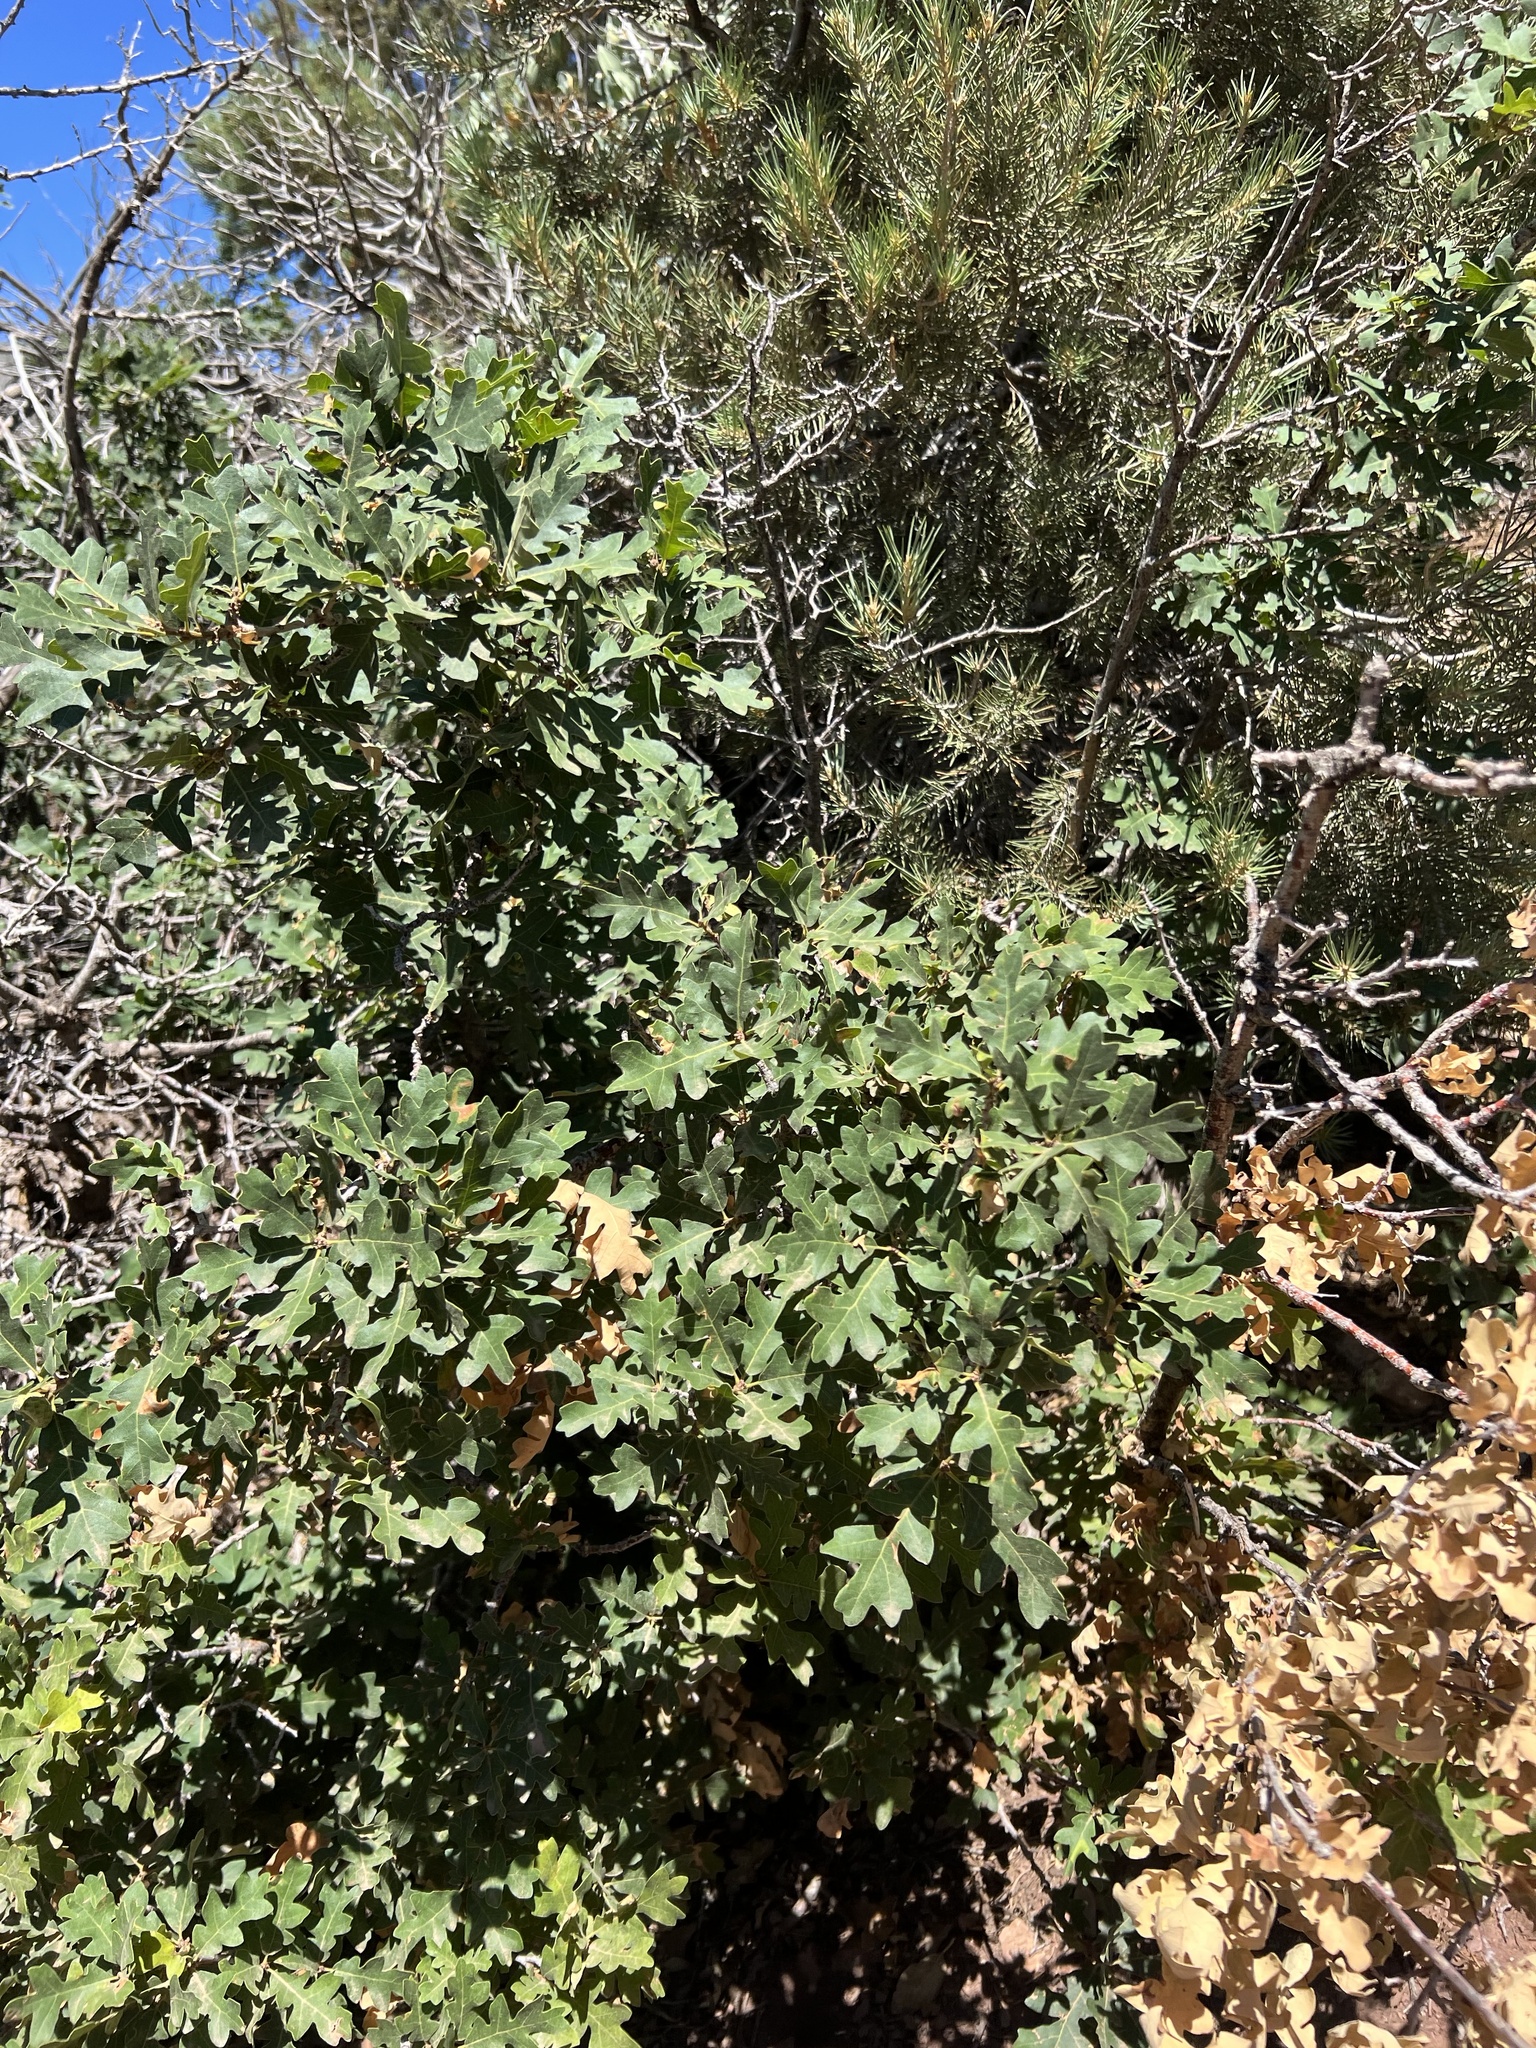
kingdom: Plantae
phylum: Tracheophyta
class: Magnoliopsida
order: Fagales
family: Fagaceae
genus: Quercus
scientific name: Quercus gambelii
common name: Gambel oak
